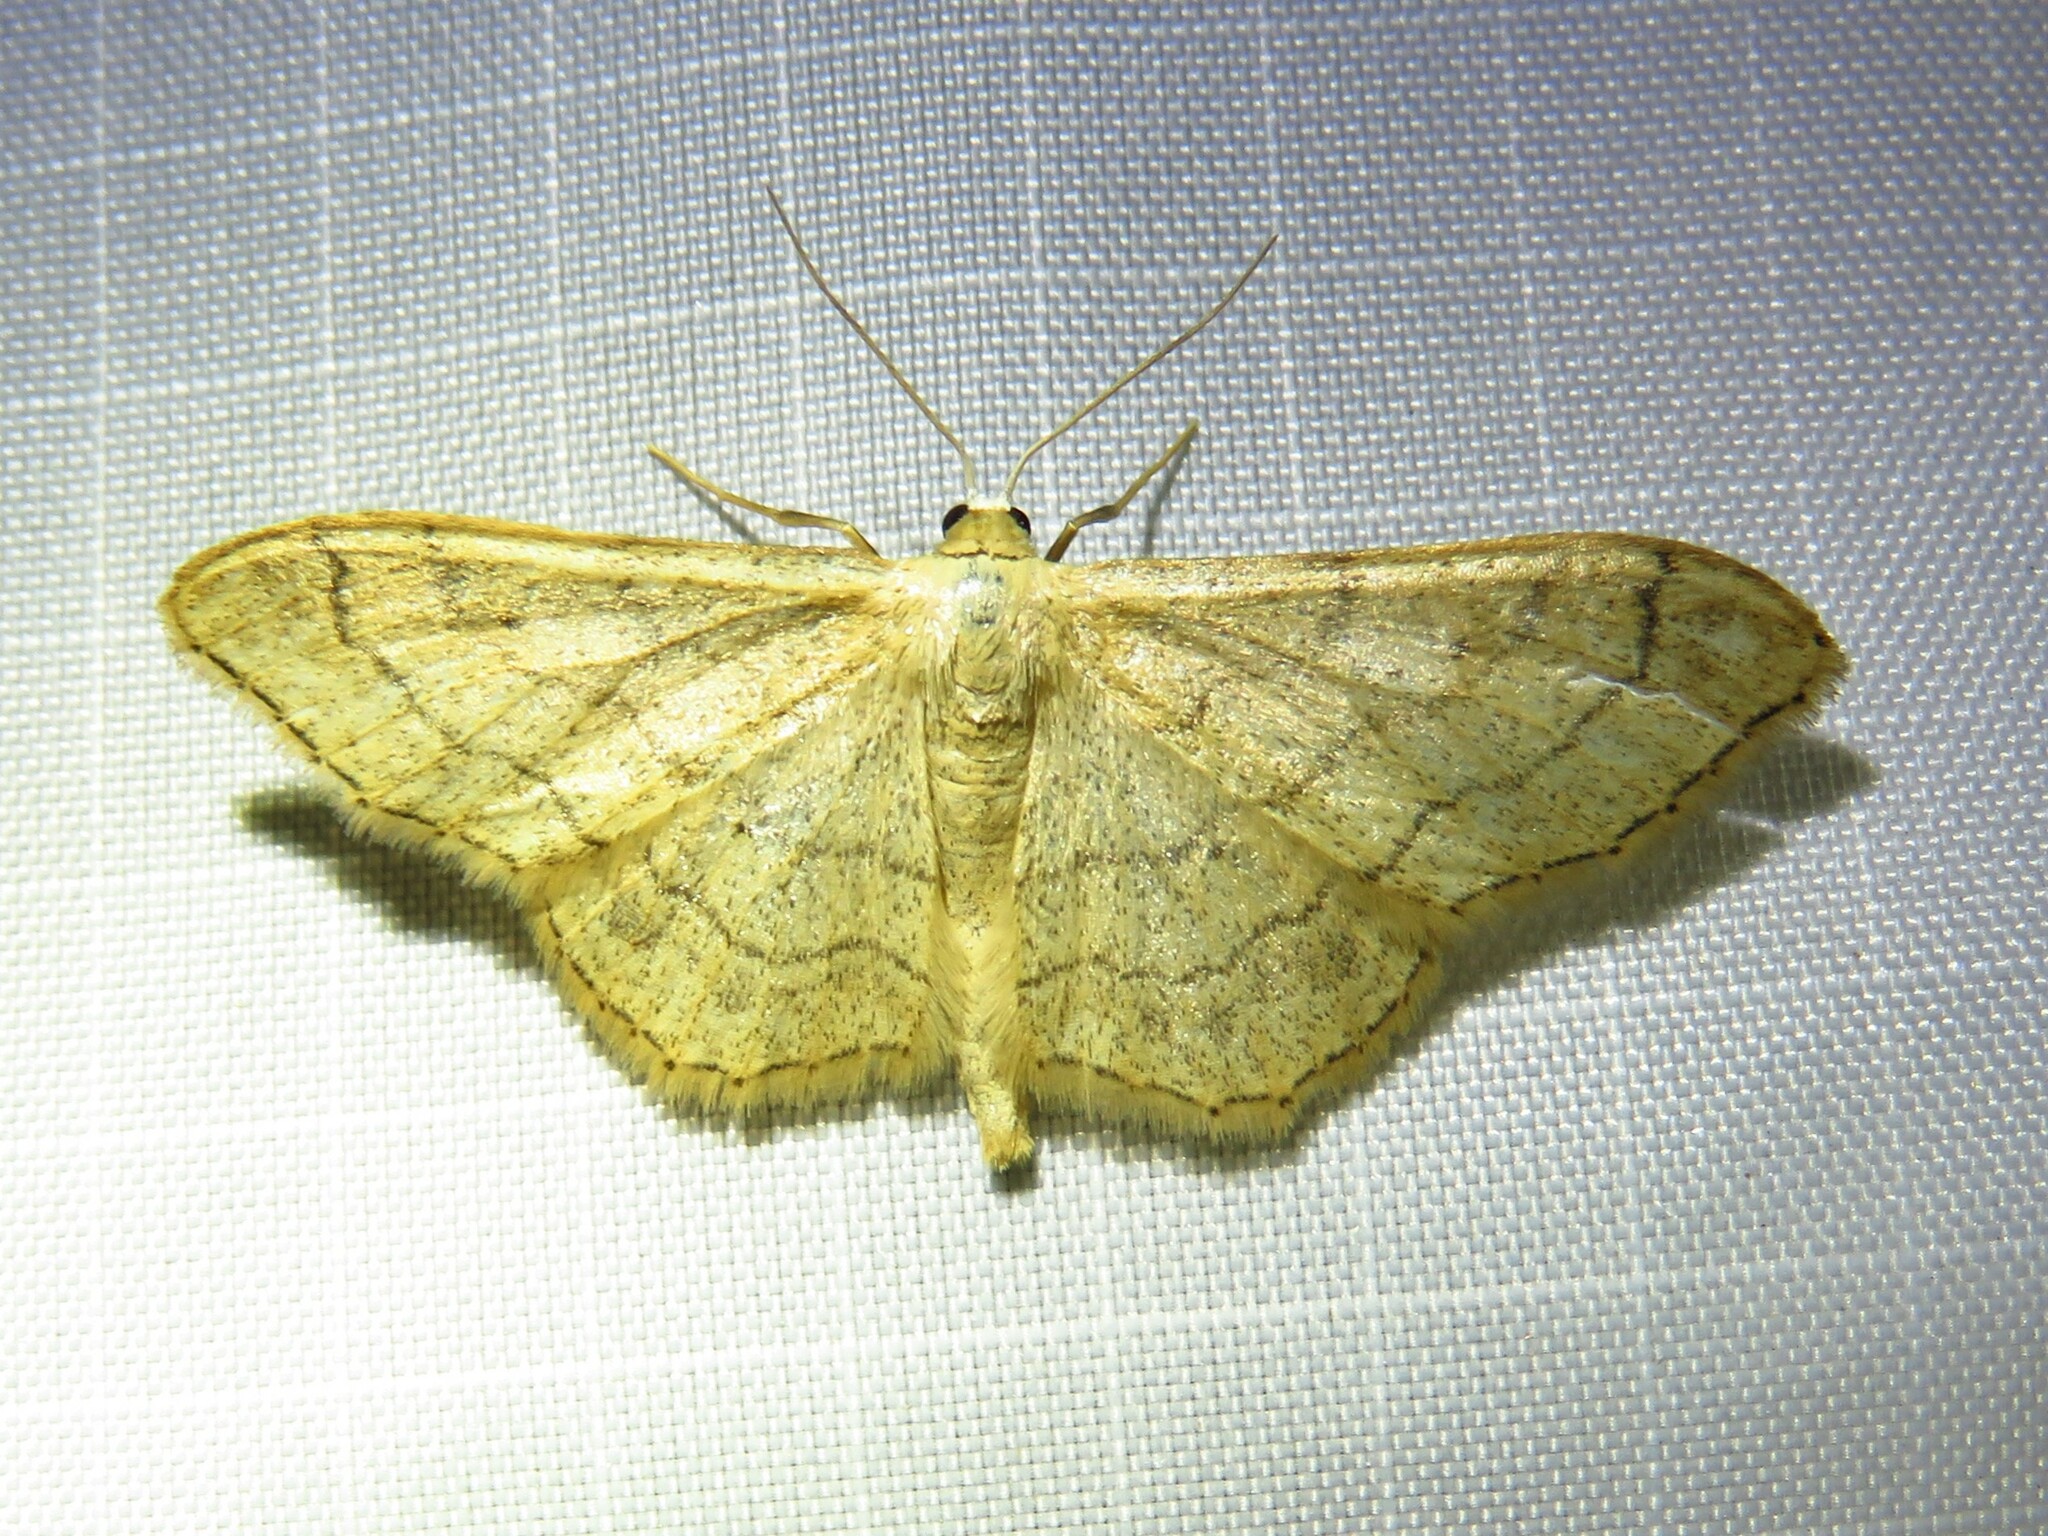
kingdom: Animalia
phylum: Arthropoda
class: Insecta
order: Lepidoptera
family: Geometridae
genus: Idaea
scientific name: Idaea aversata
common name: Riband wave
